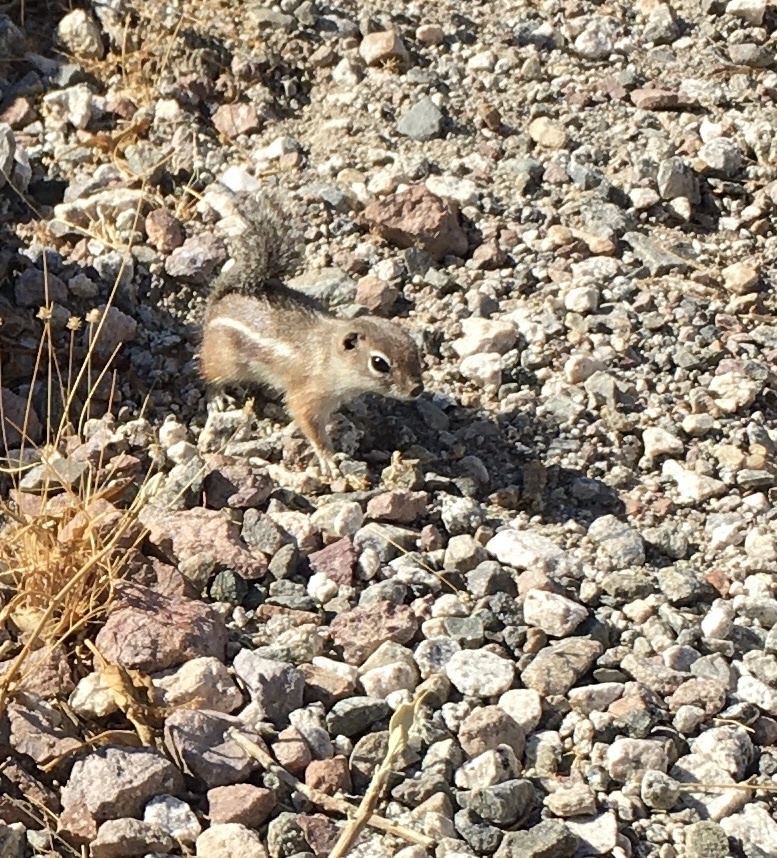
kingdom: Animalia
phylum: Chordata
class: Mammalia
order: Rodentia
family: Sciuridae
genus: Ammospermophilus
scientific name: Ammospermophilus harrisii
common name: Harris's antelope squirrel
